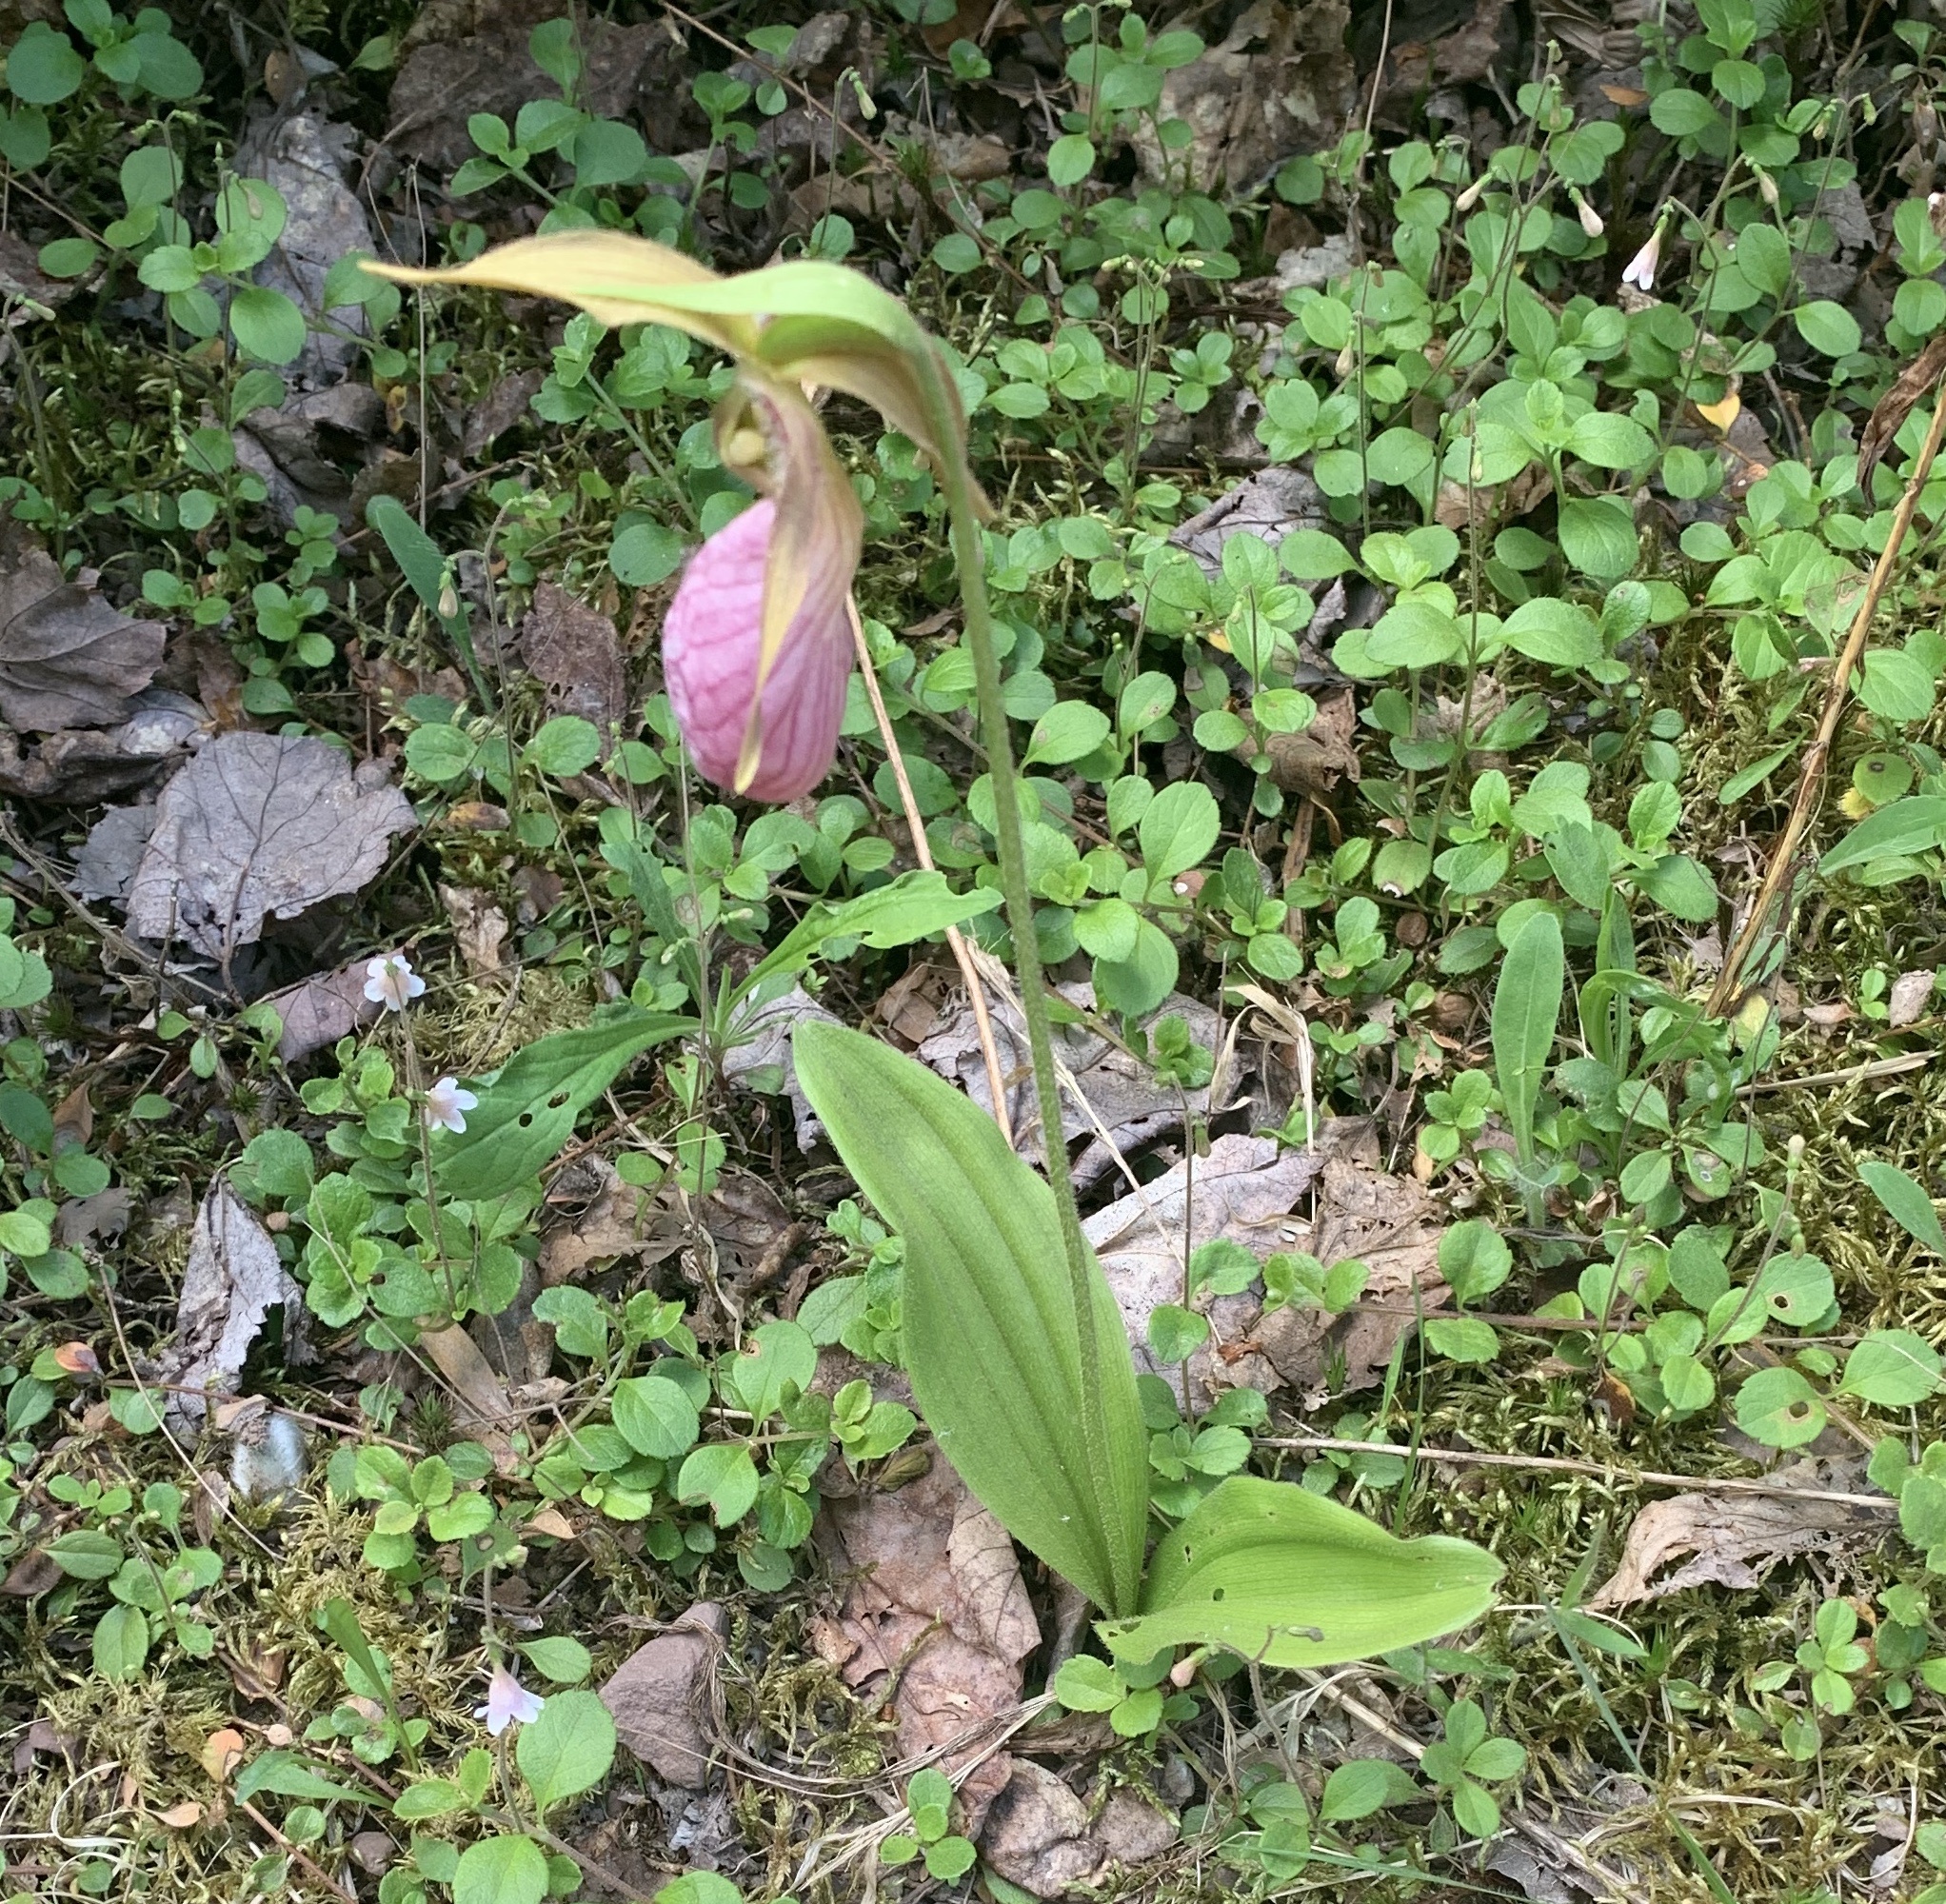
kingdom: Plantae
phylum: Tracheophyta
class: Liliopsida
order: Asparagales
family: Orchidaceae
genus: Cypripedium
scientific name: Cypripedium acaule
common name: Pink lady's-slipper
